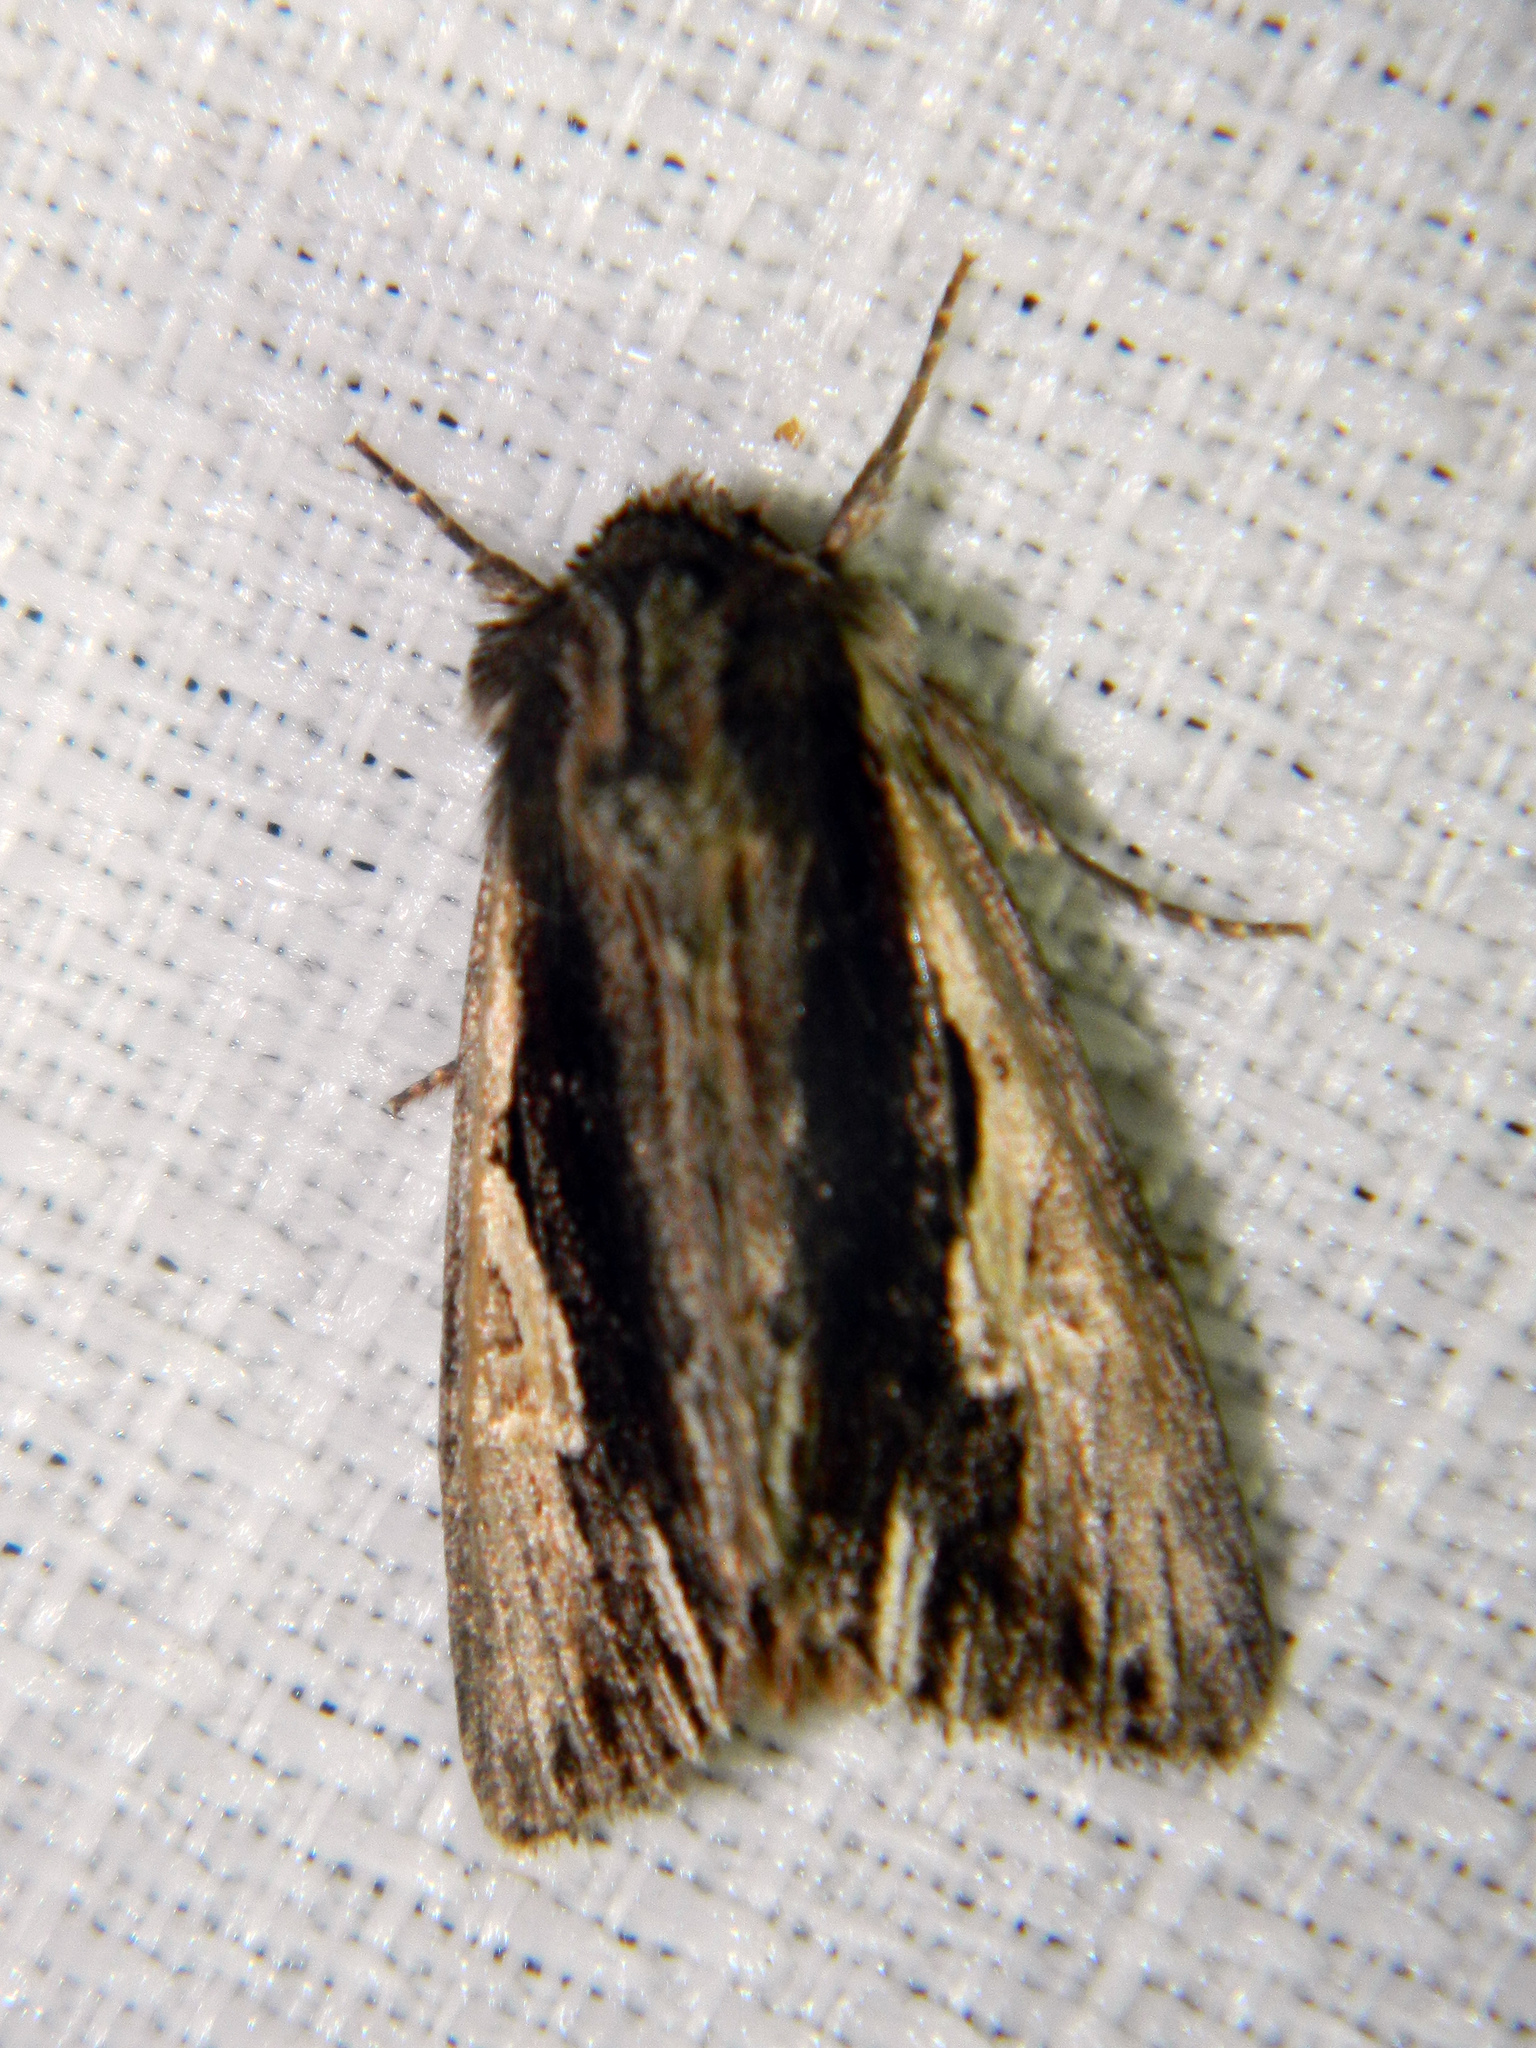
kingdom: Animalia
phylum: Arthropoda
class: Insecta
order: Lepidoptera
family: Noctuidae
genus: Achatia
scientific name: Achatia evicta
